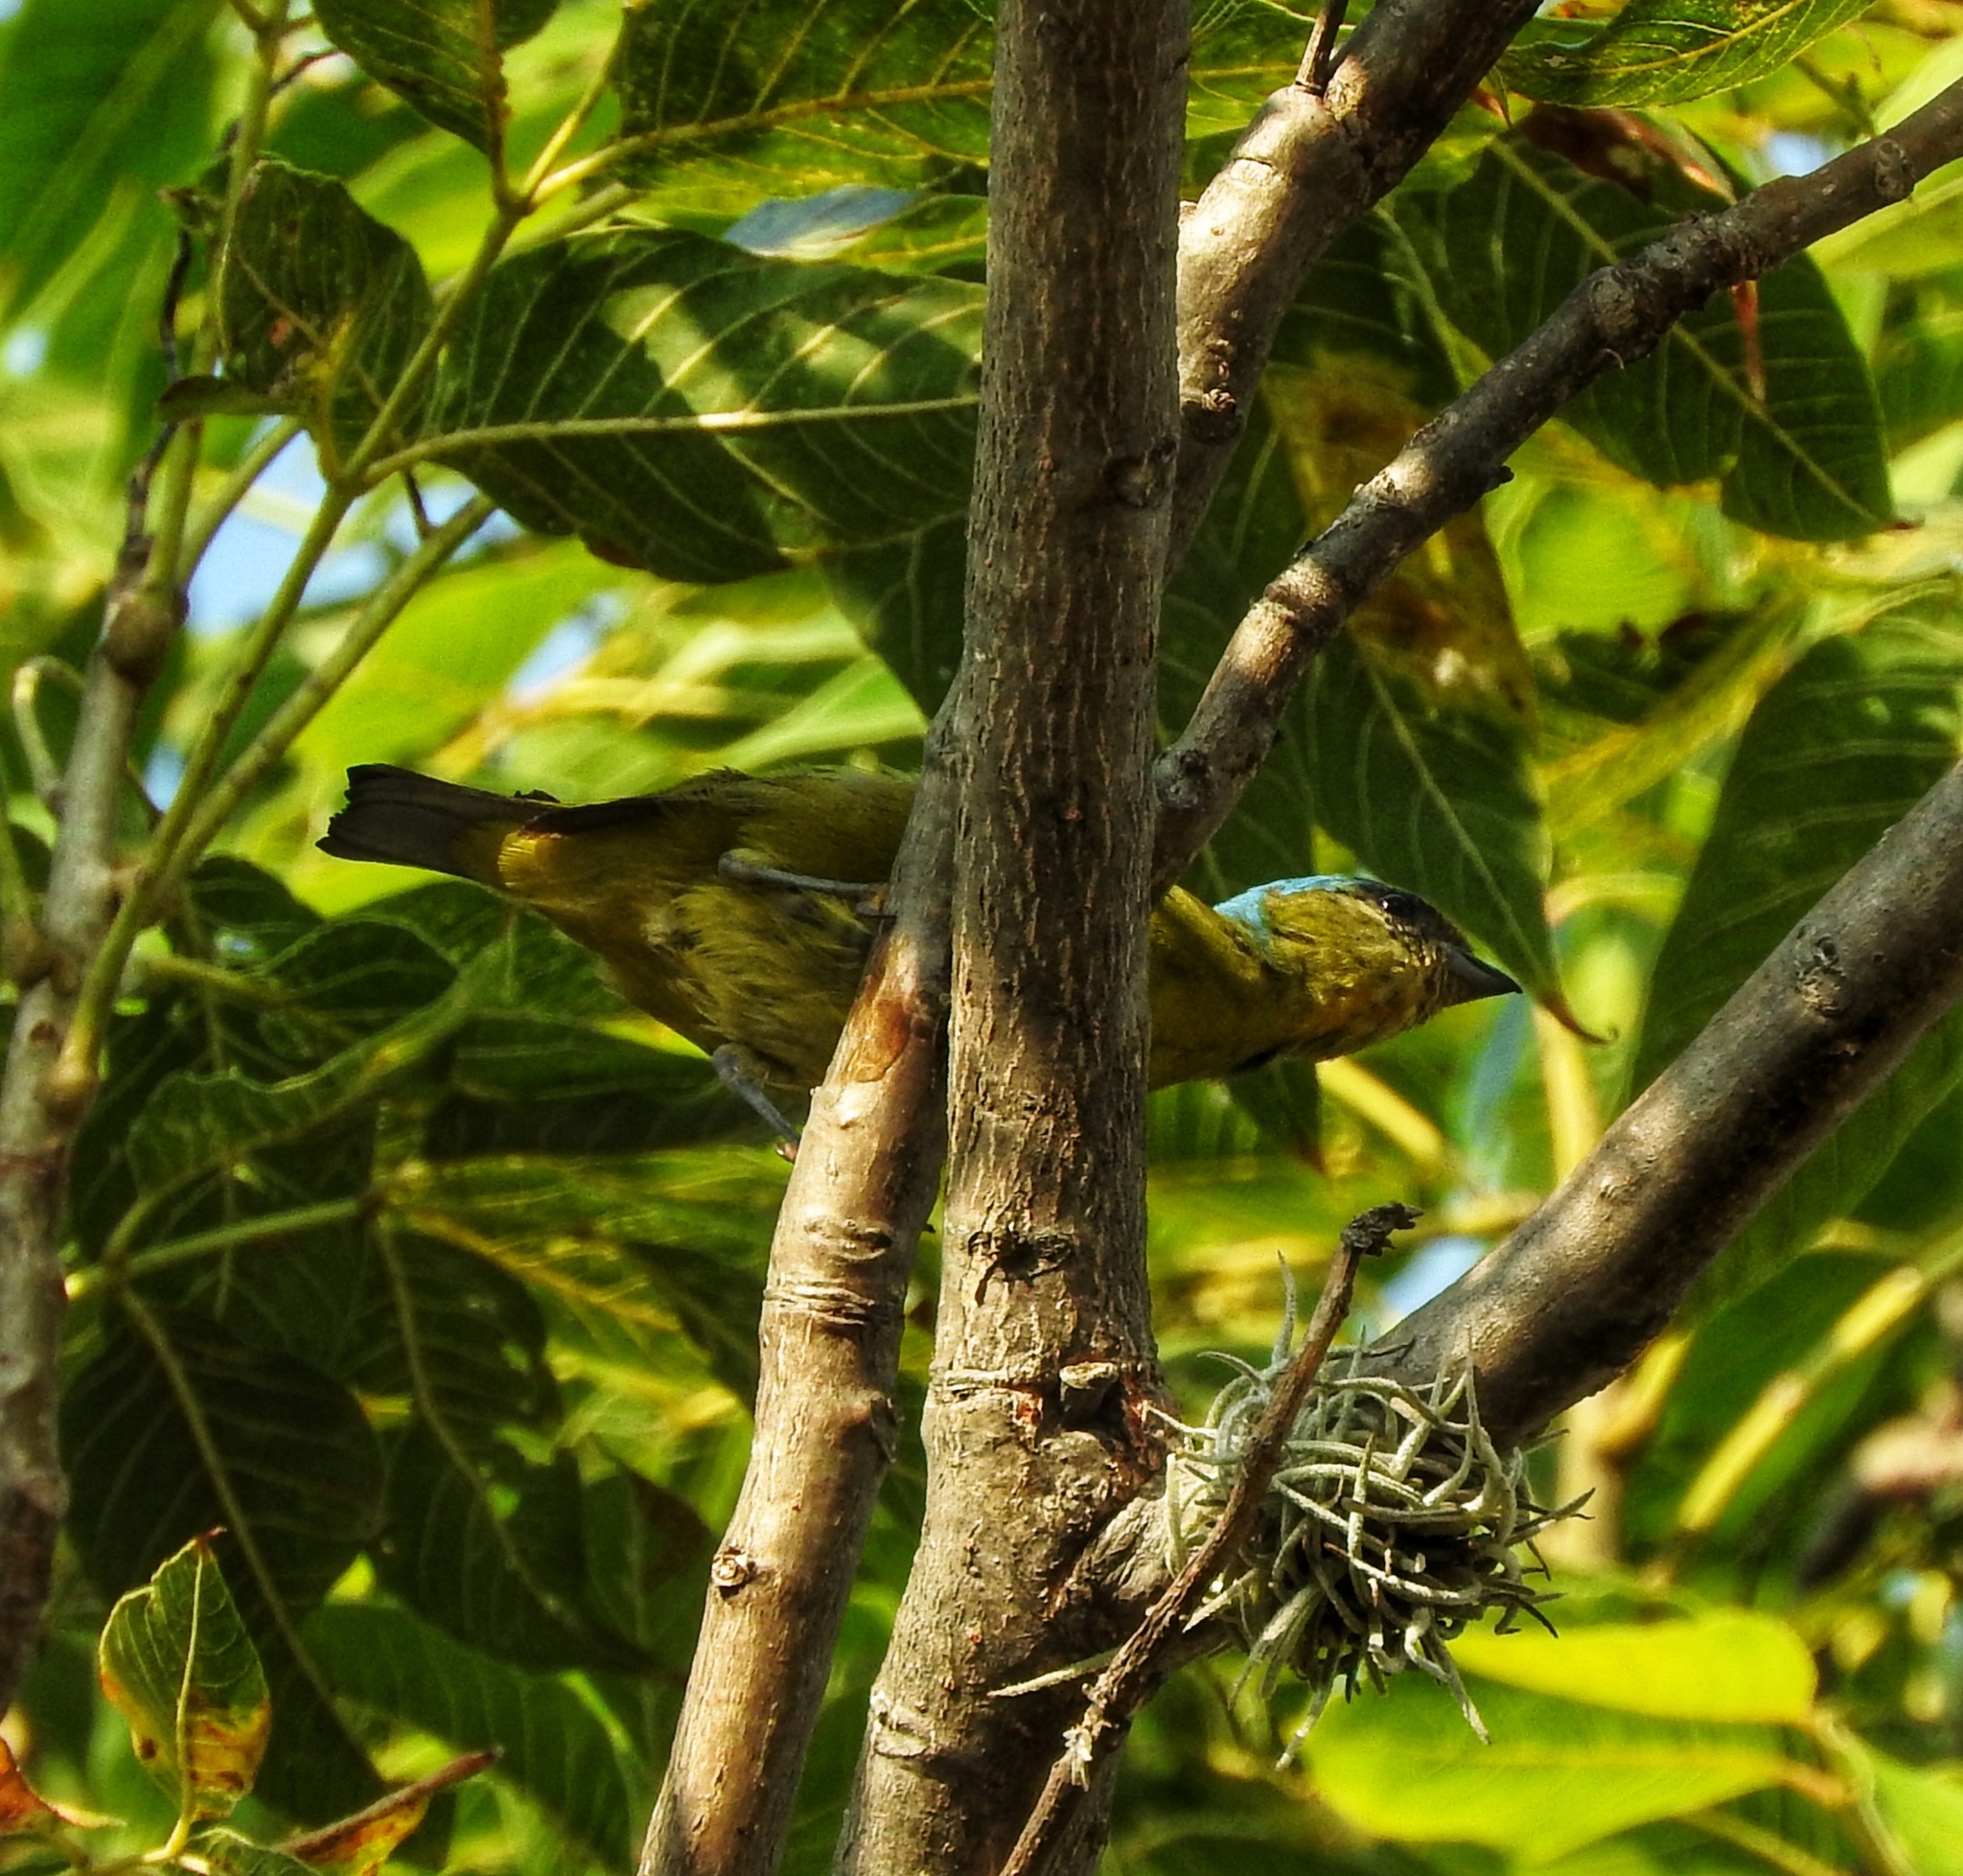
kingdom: Animalia
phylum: Chordata
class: Aves
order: Passeriformes
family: Fringillidae
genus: Euphonia
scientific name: Euphonia elegantissima
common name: Elegant euphonia
